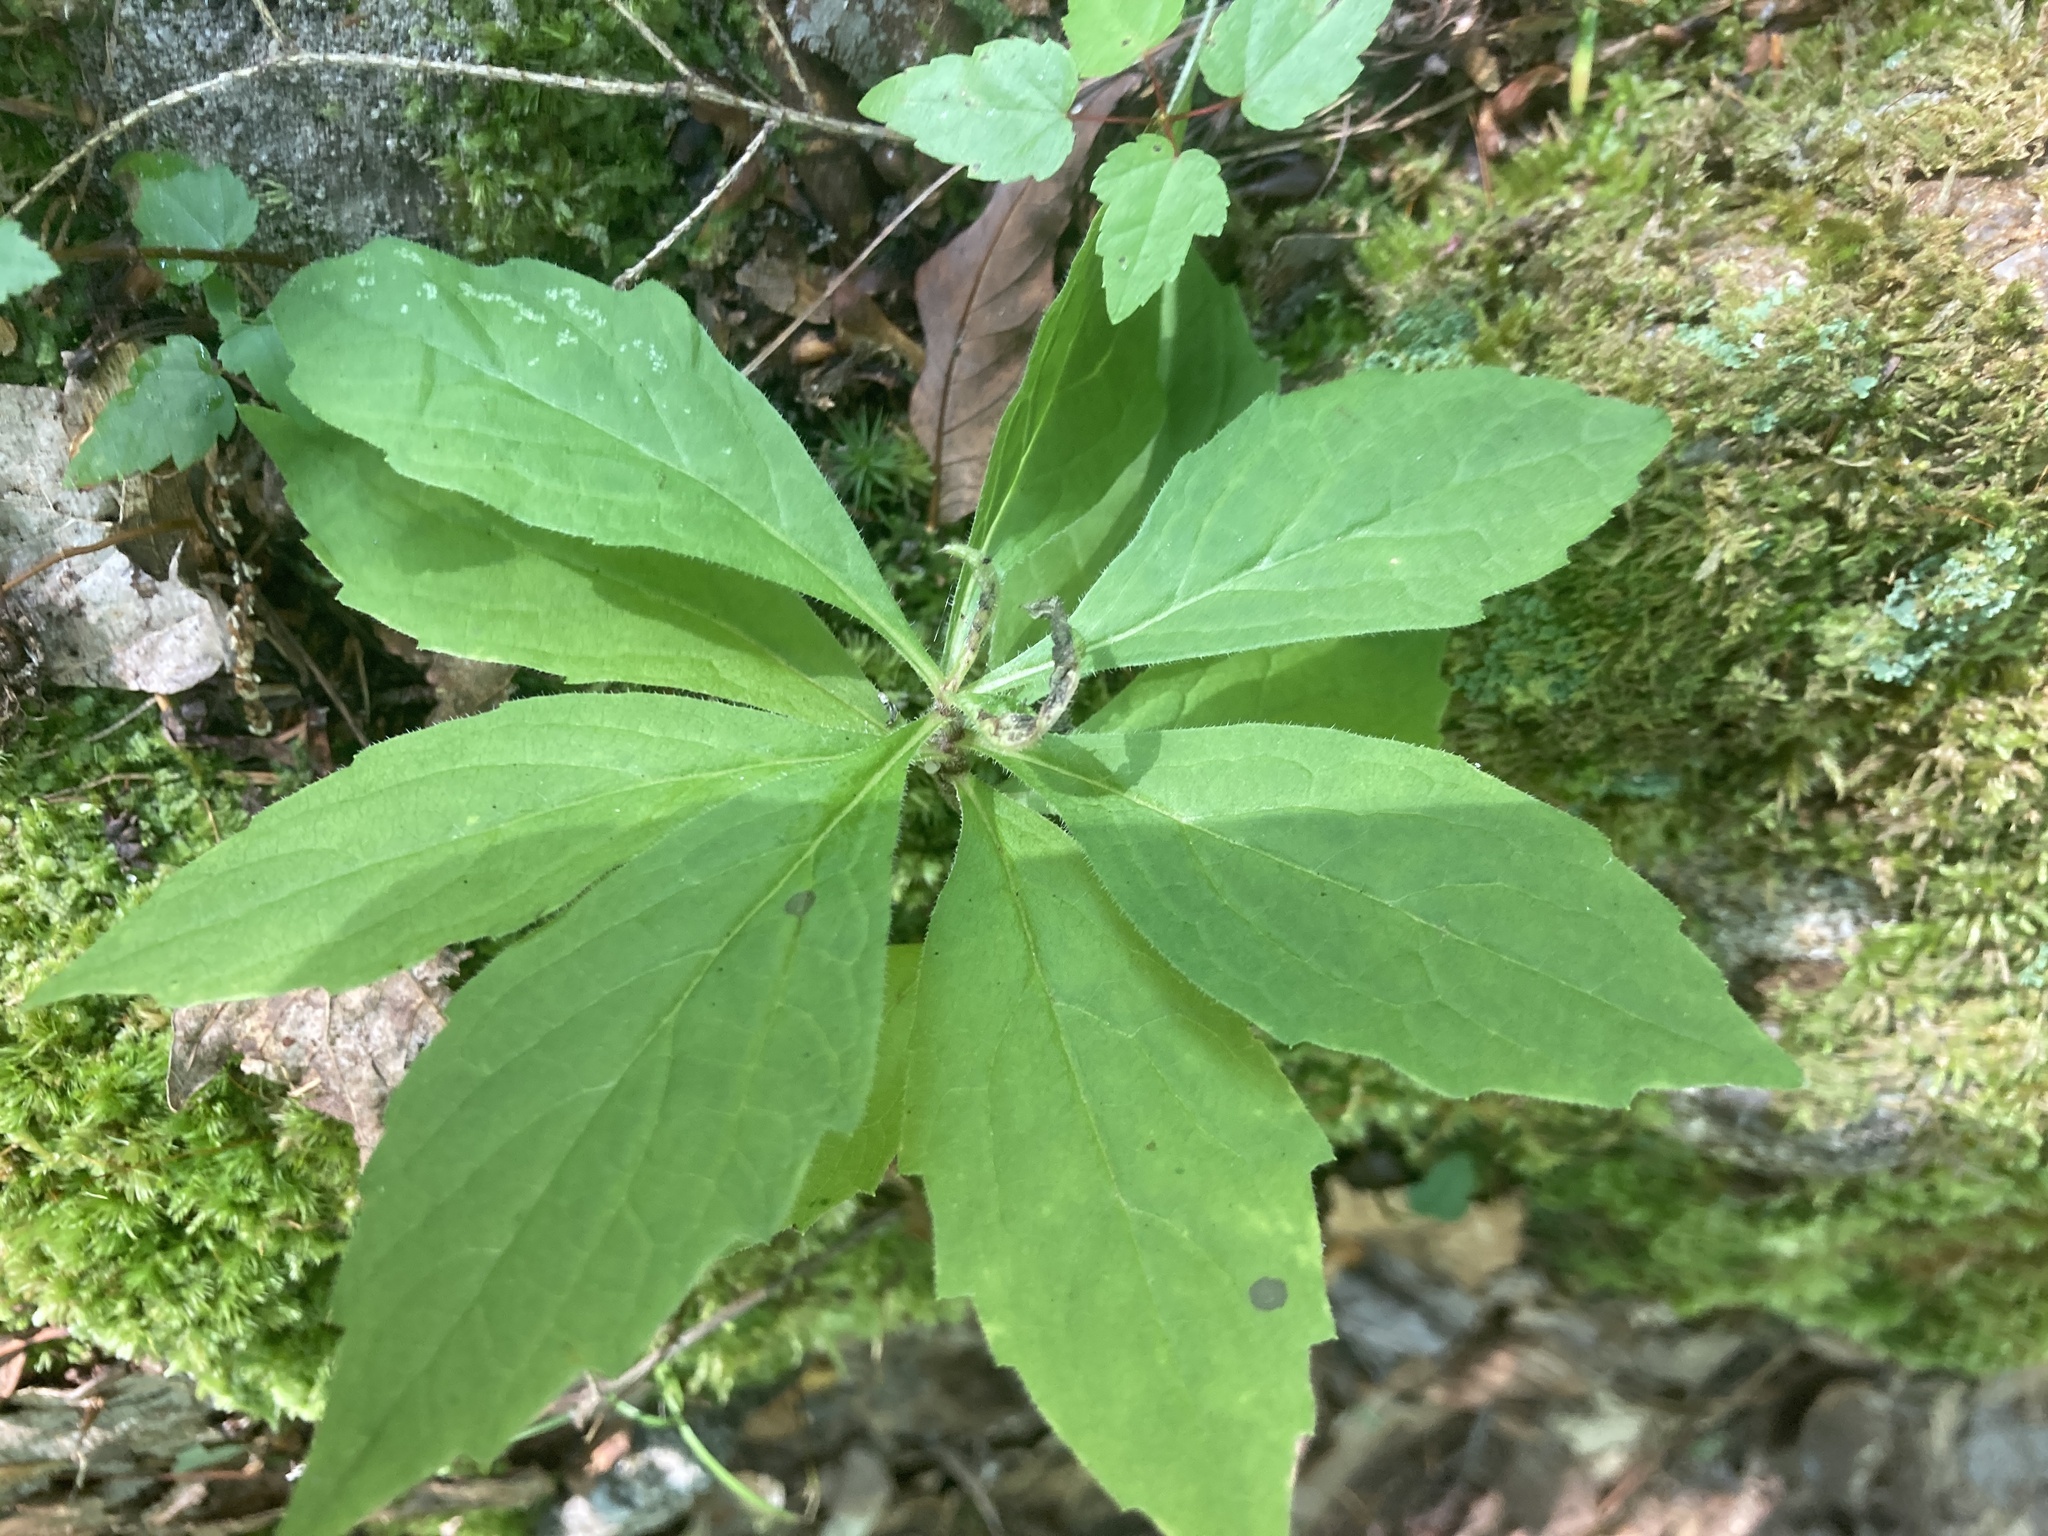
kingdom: Plantae
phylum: Tracheophyta
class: Magnoliopsida
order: Asterales
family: Asteraceae
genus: Oclemena
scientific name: Oclemena acuminata
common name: Mountain aster
